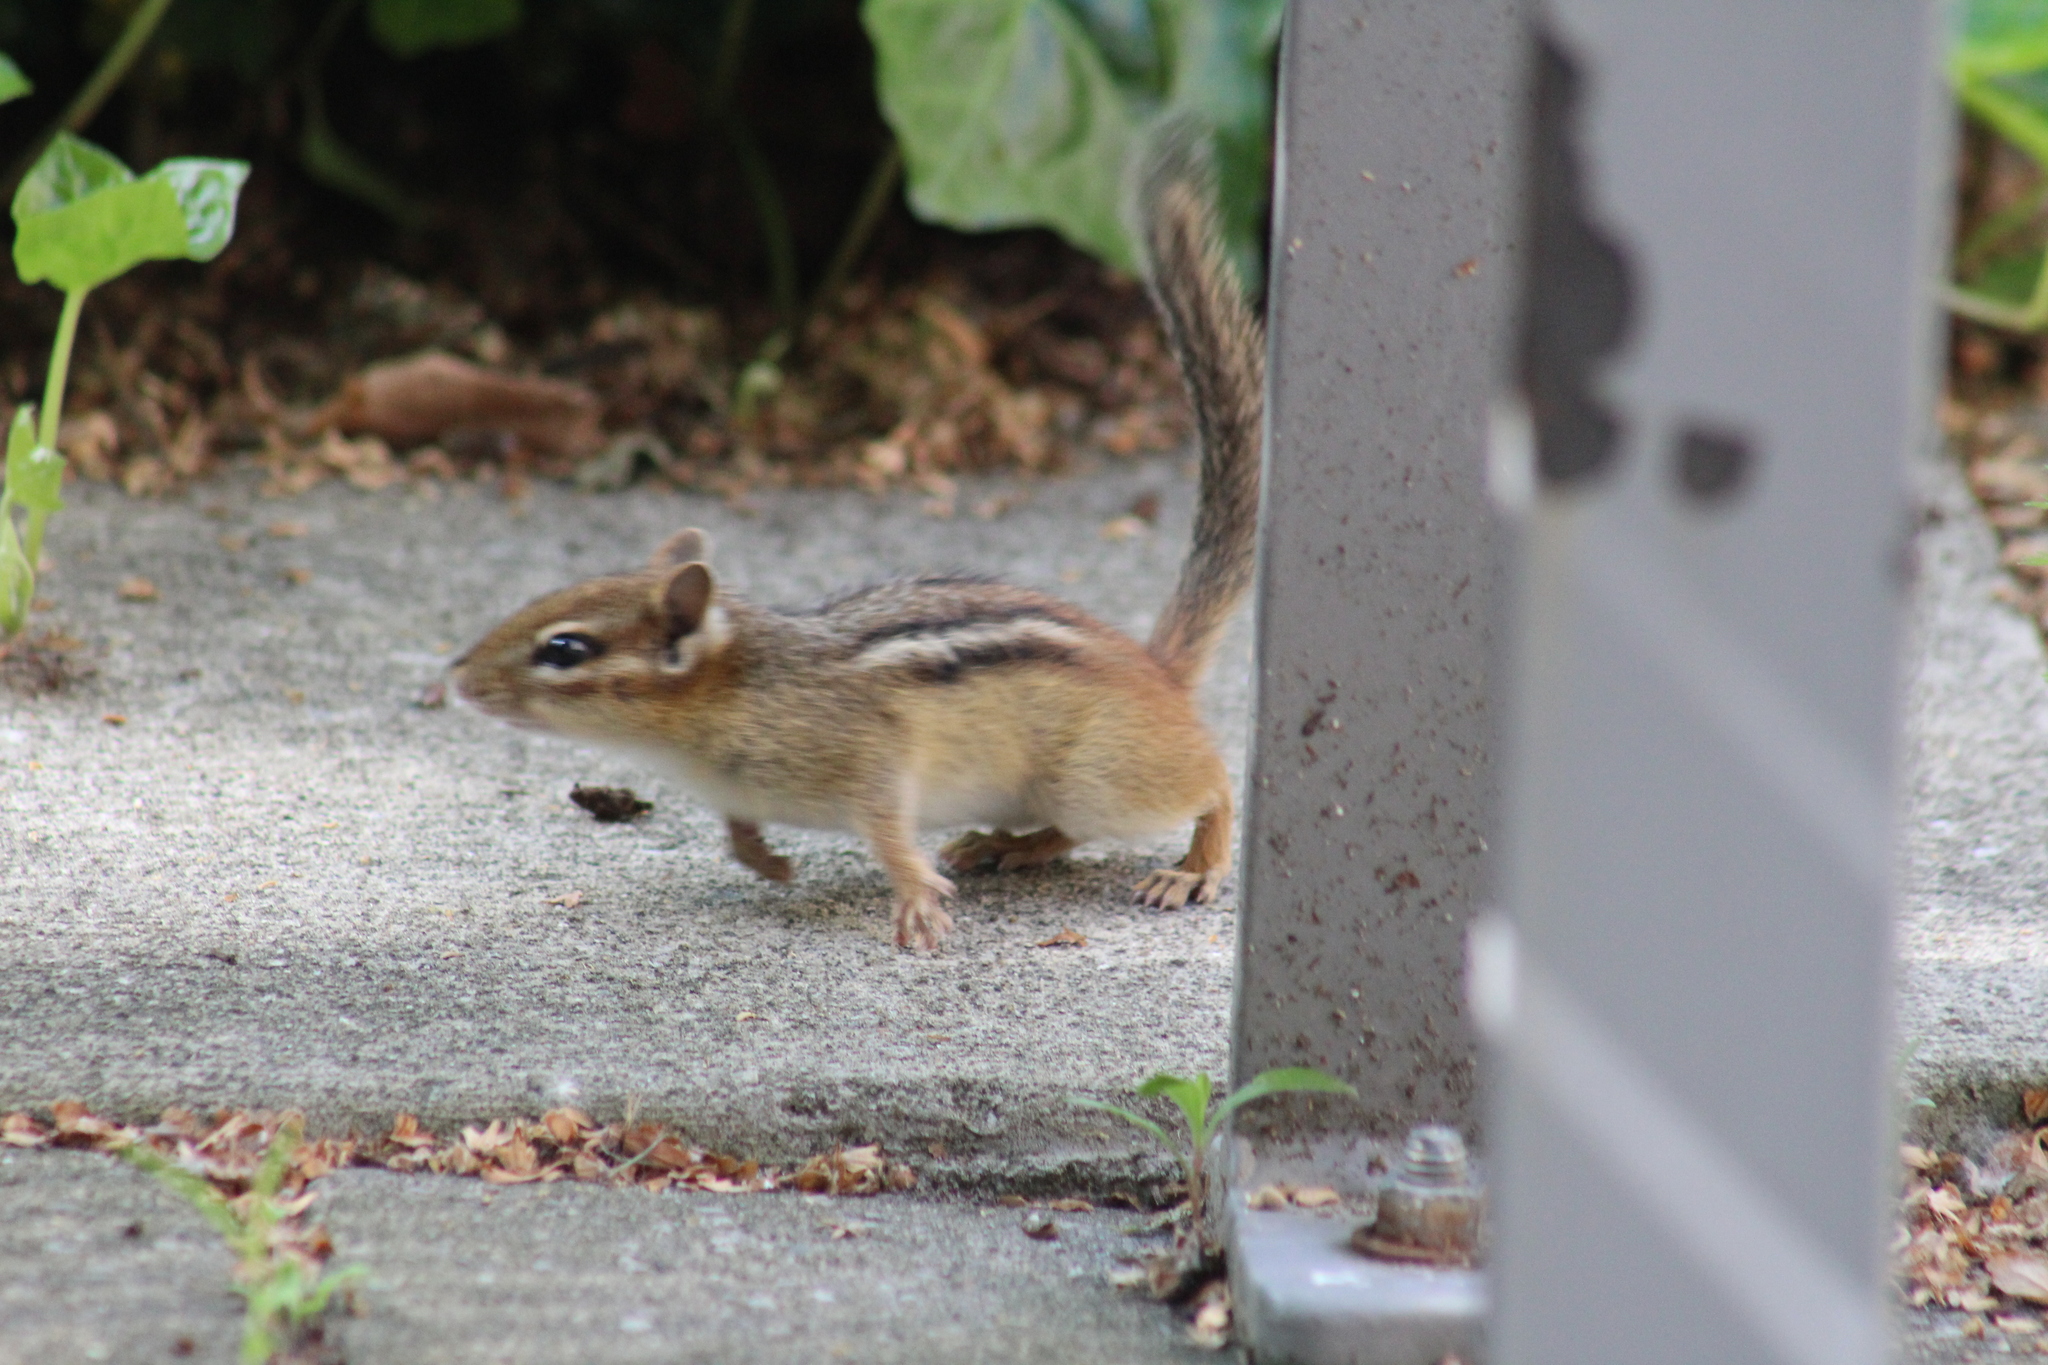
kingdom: Animalia
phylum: Chordata
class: Mammalia
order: Rodentia
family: Sciuridae
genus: Tamias
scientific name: Tamias striatus
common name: Eastern chipmunk
